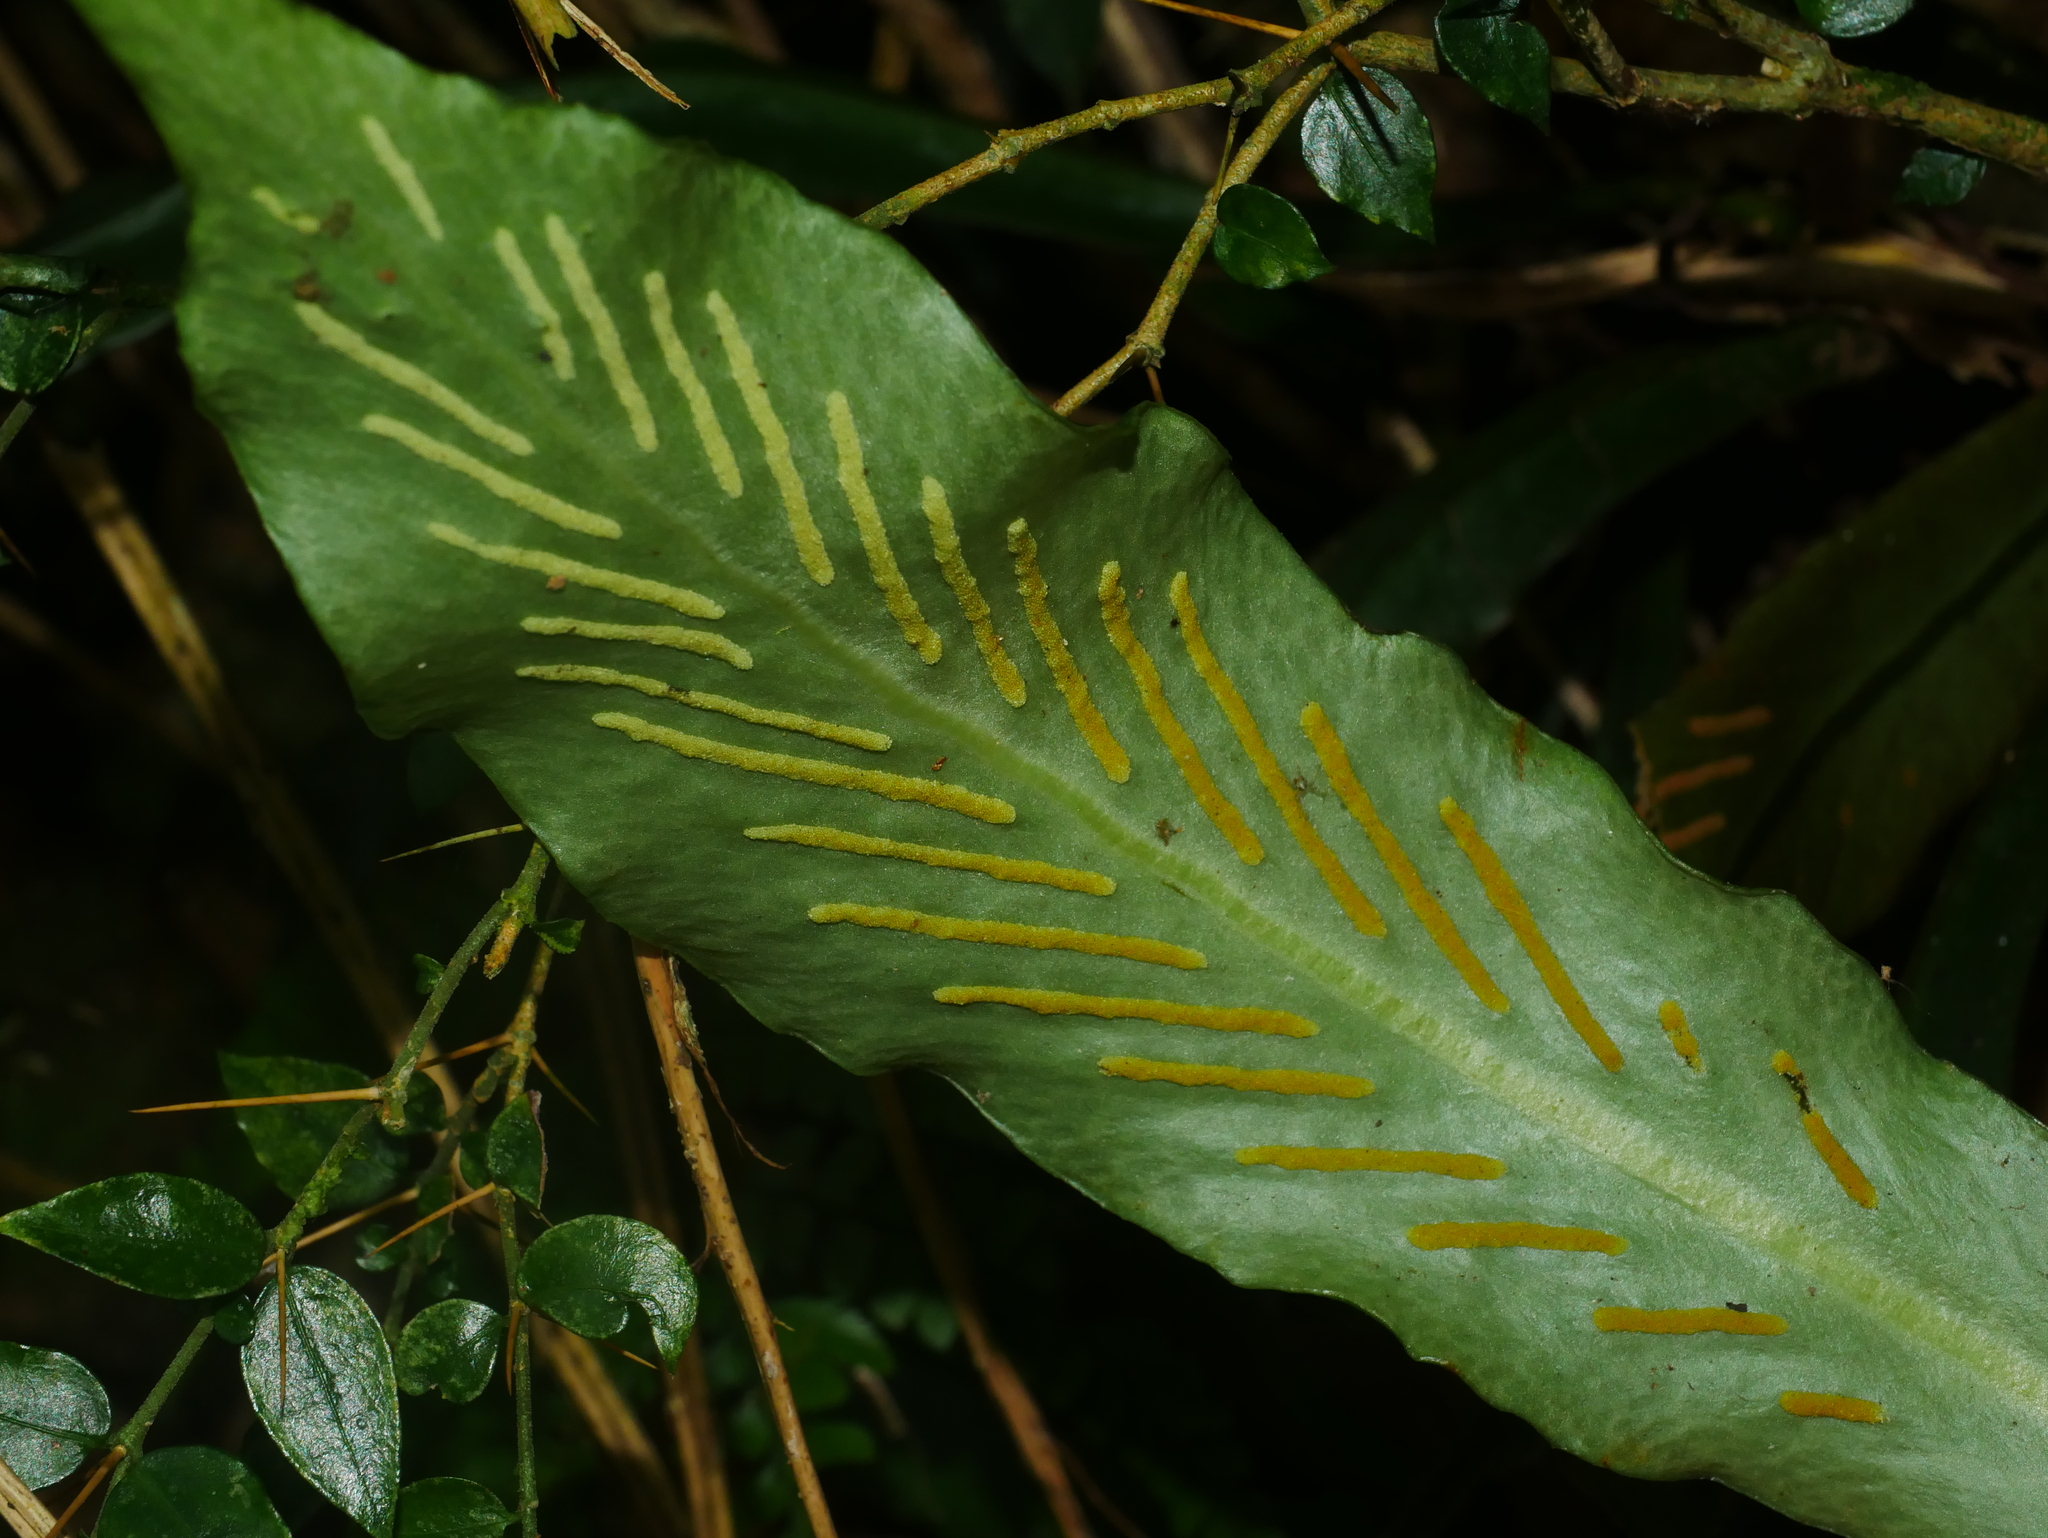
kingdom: Plantae
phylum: Tracheophyta
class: Polypodiopsida
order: Polypodiales
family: Polypodiaceae
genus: Loxogramme
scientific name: Loxogramme formosana
